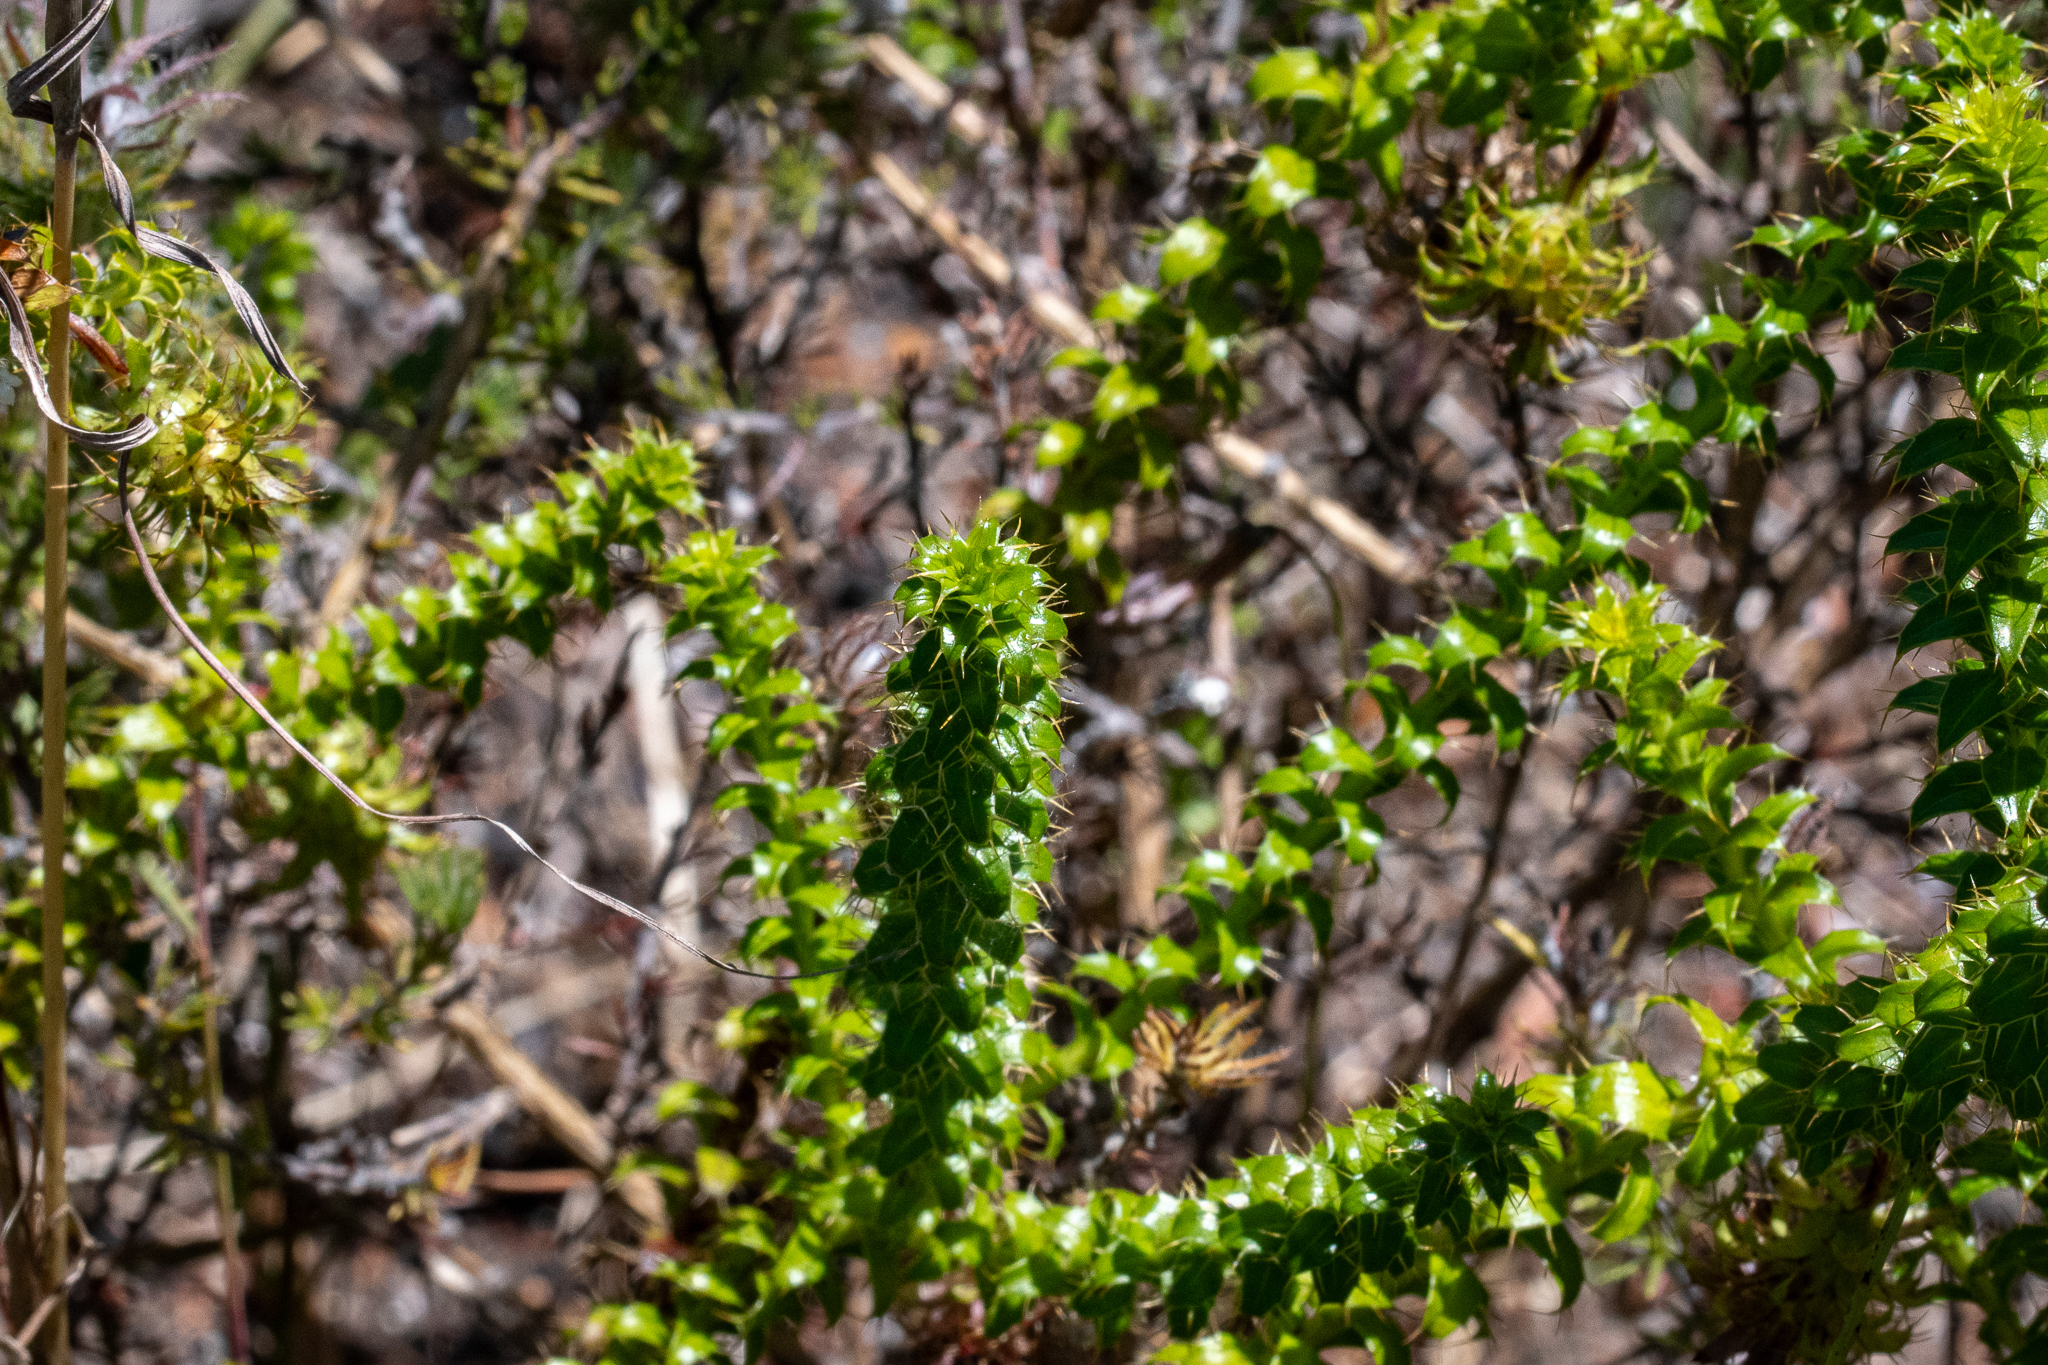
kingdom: Plantae
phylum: Tracheophyta
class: Magnoliopsida
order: Asterales
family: Asteraceae
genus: Cullumia
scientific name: Cullumia setosa
